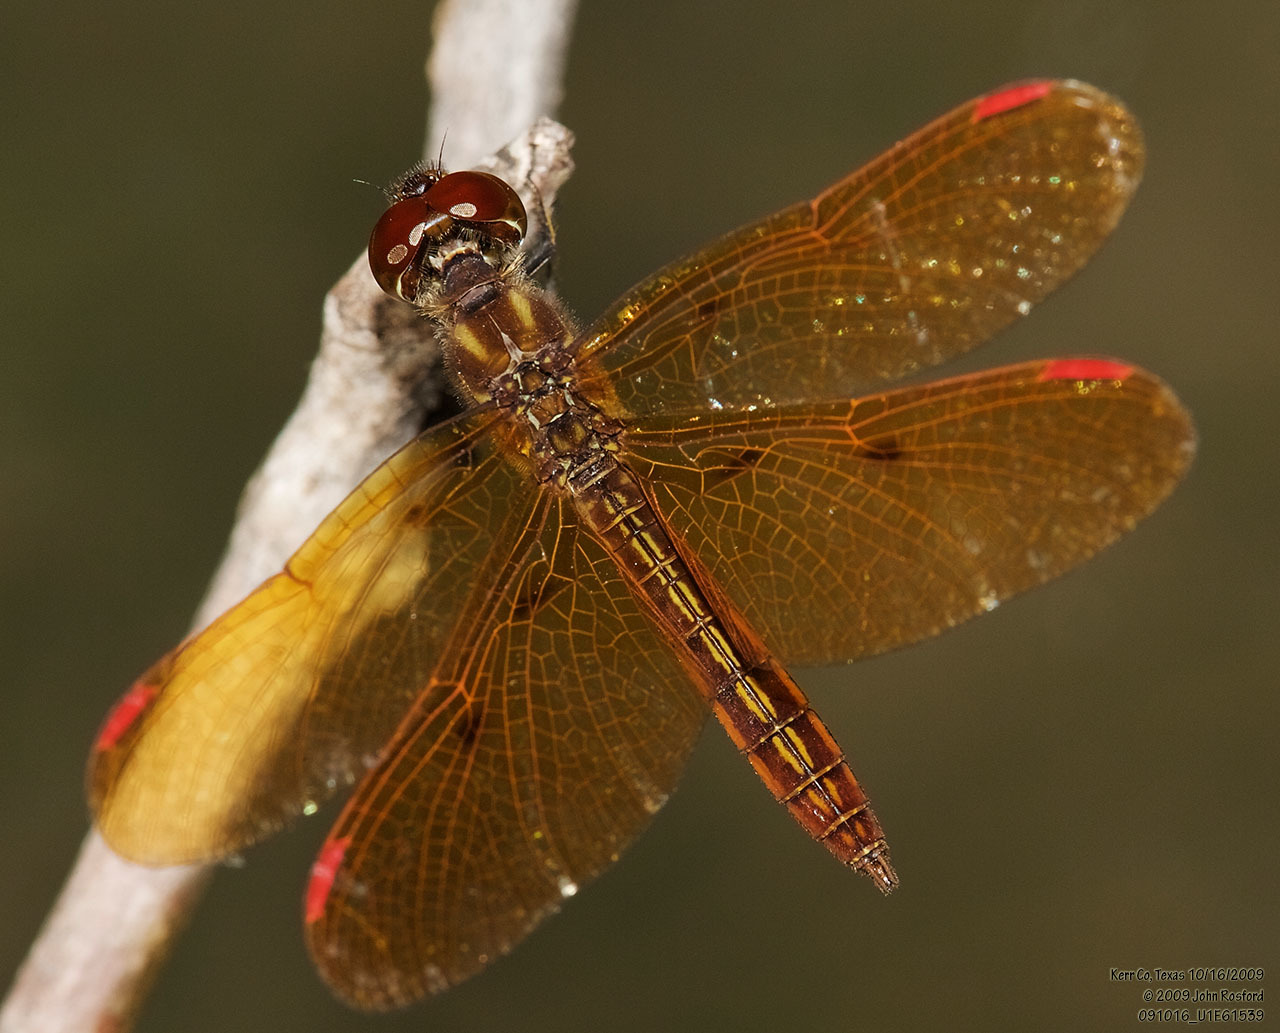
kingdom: Animalia
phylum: Arthropoda
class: Insecta
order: Odonata
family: Libellulidae
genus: Perithemis
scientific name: Perithemis domitia
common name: Slough amberwing
